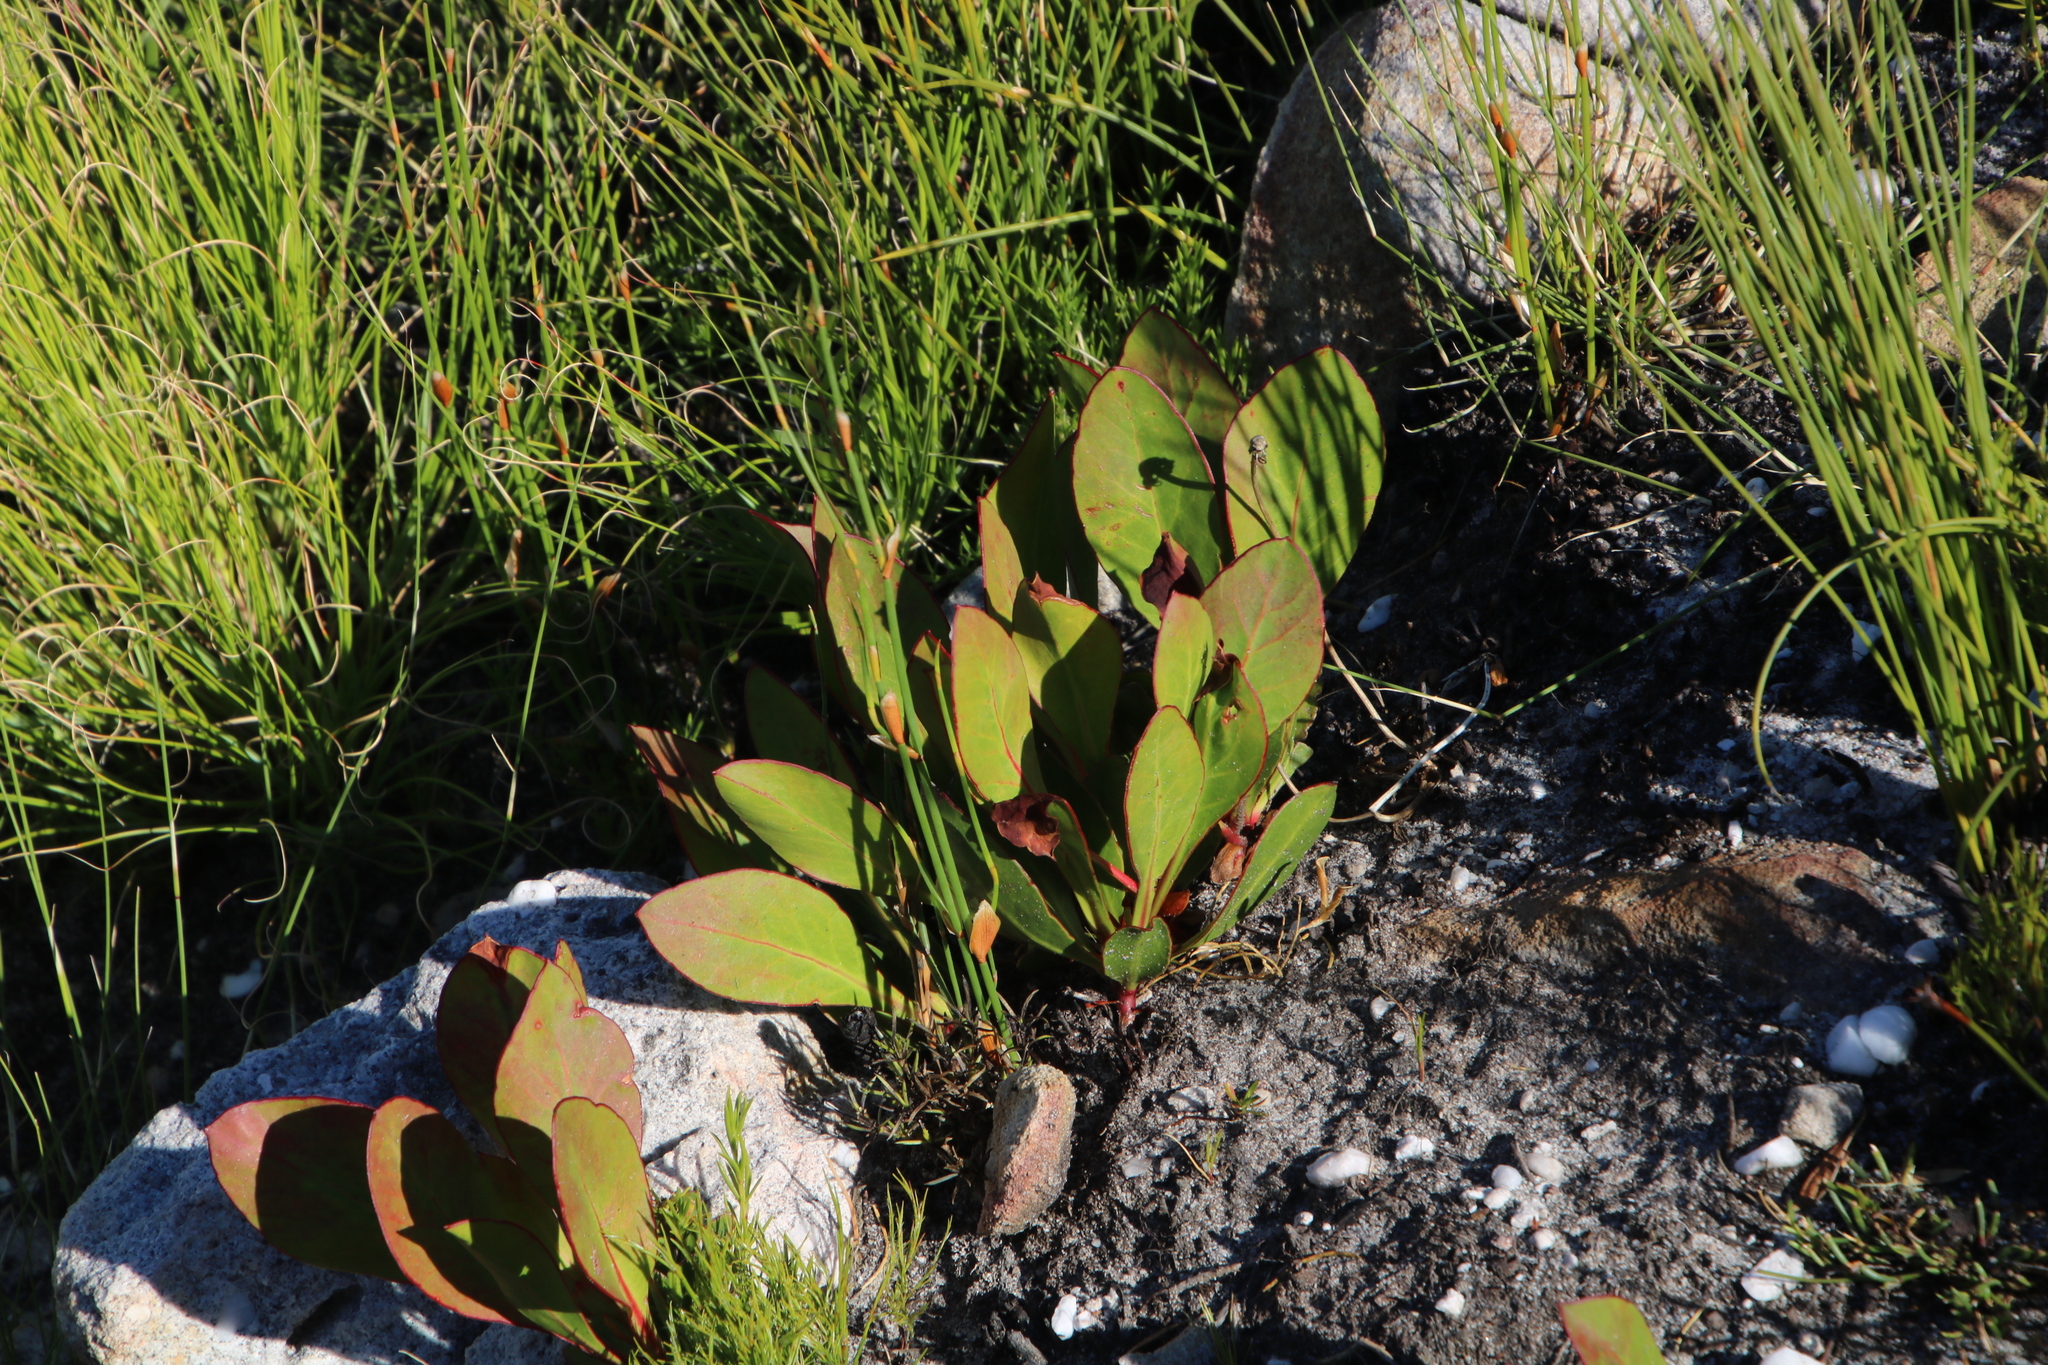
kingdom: Plantae
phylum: Tracheophyta
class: Magnoliopsida
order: Proteales
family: Proteaceae
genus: Protea
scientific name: Protea acaulos
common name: Common ground sugarbush
